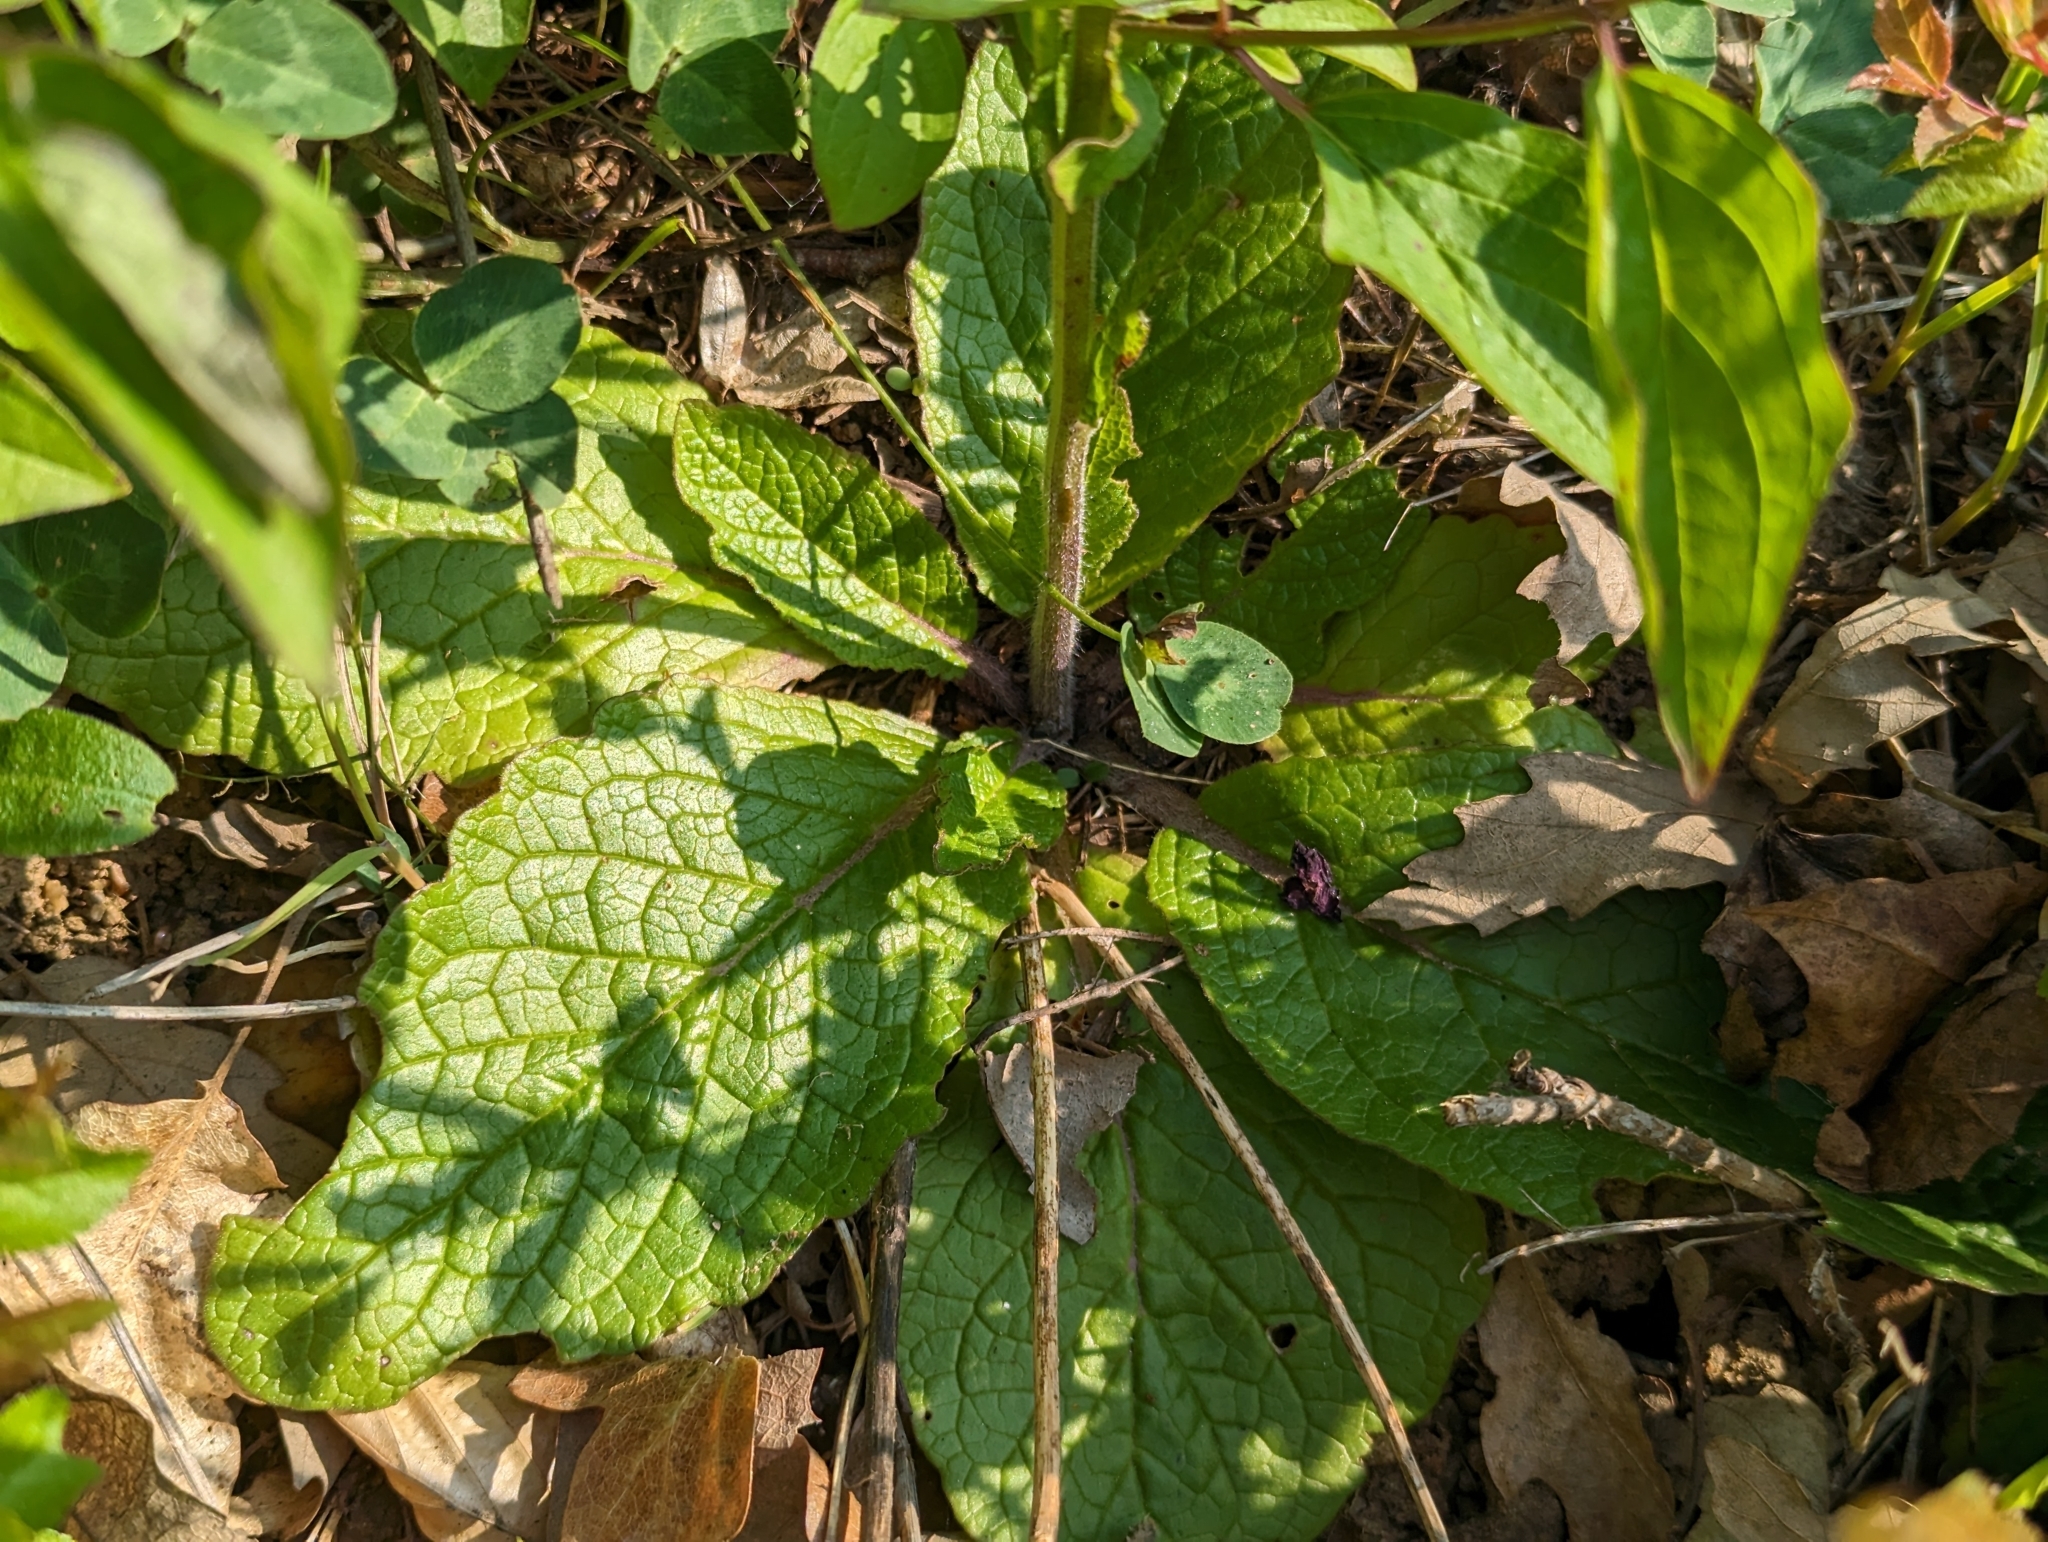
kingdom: Plantae
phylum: Tracheophyta
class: Magnoliopsida
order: Lamiales
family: Scrophulariaceae
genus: Verbascum
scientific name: Verbascum phoeniceum
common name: Purple mullein
